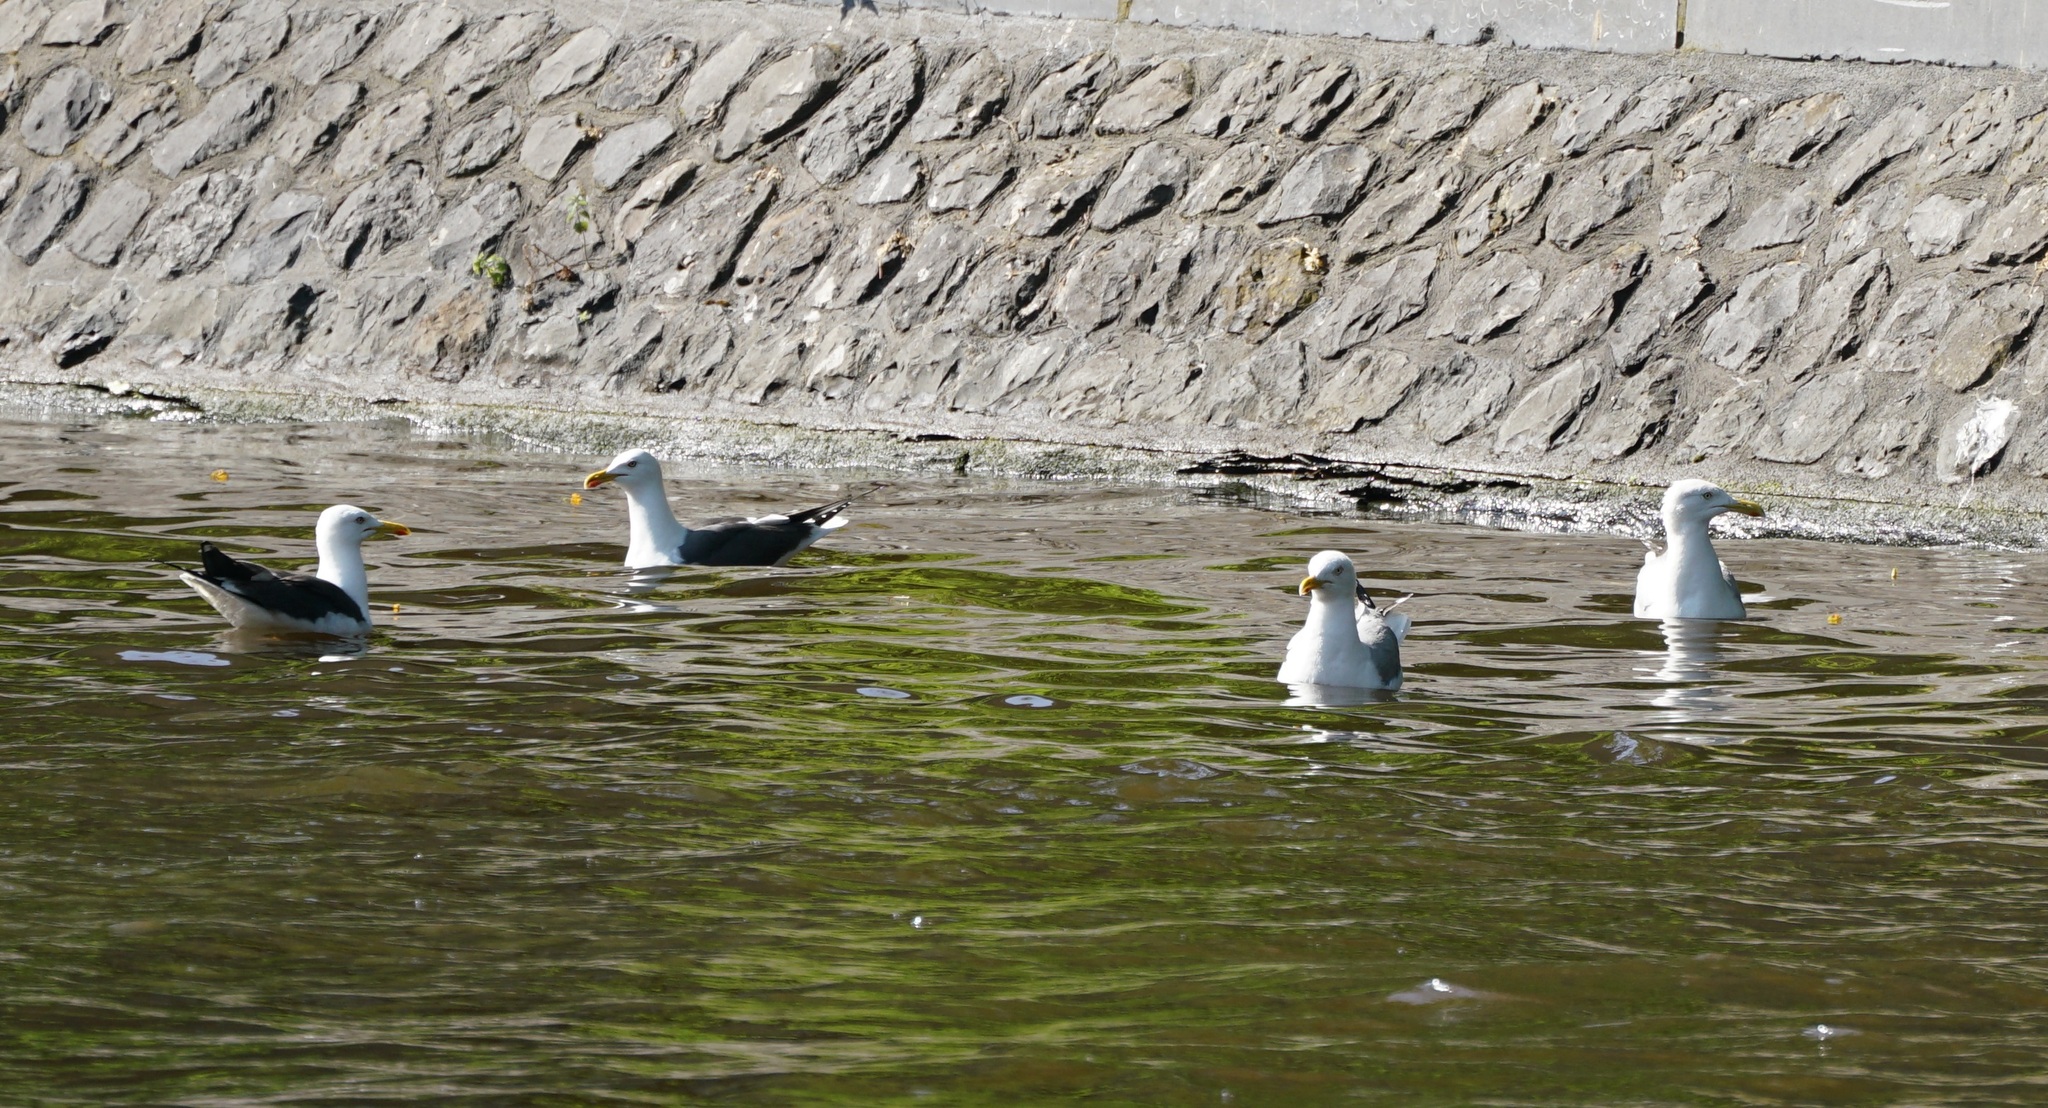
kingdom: Animalia
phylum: Chordata
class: Aves
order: Charadriiformes
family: Laridae
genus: Larus
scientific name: Larus argentatus
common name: Herring gull
